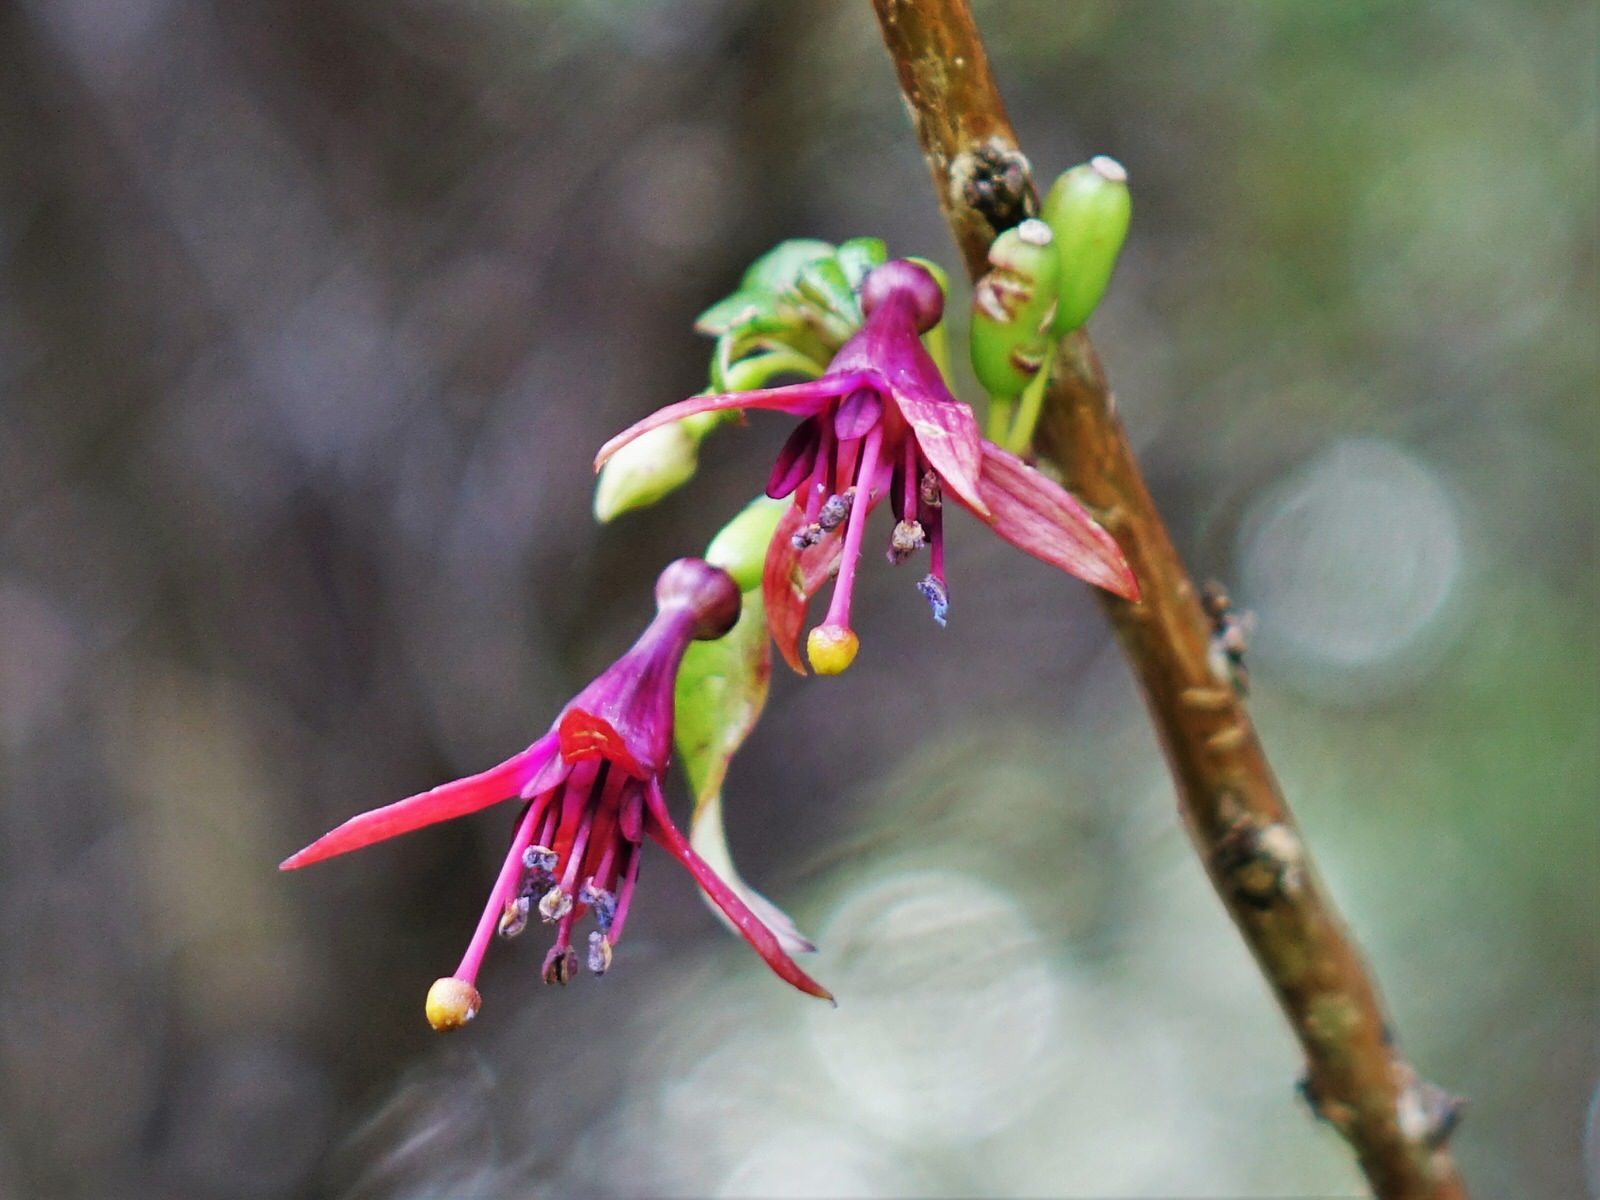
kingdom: Plantae
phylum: Tracheophyta
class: Magnoliopsida
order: Myrtales
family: Onagraceae
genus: Fuchsia
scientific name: Fuchsia excorticata
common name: Tree fuchsia
